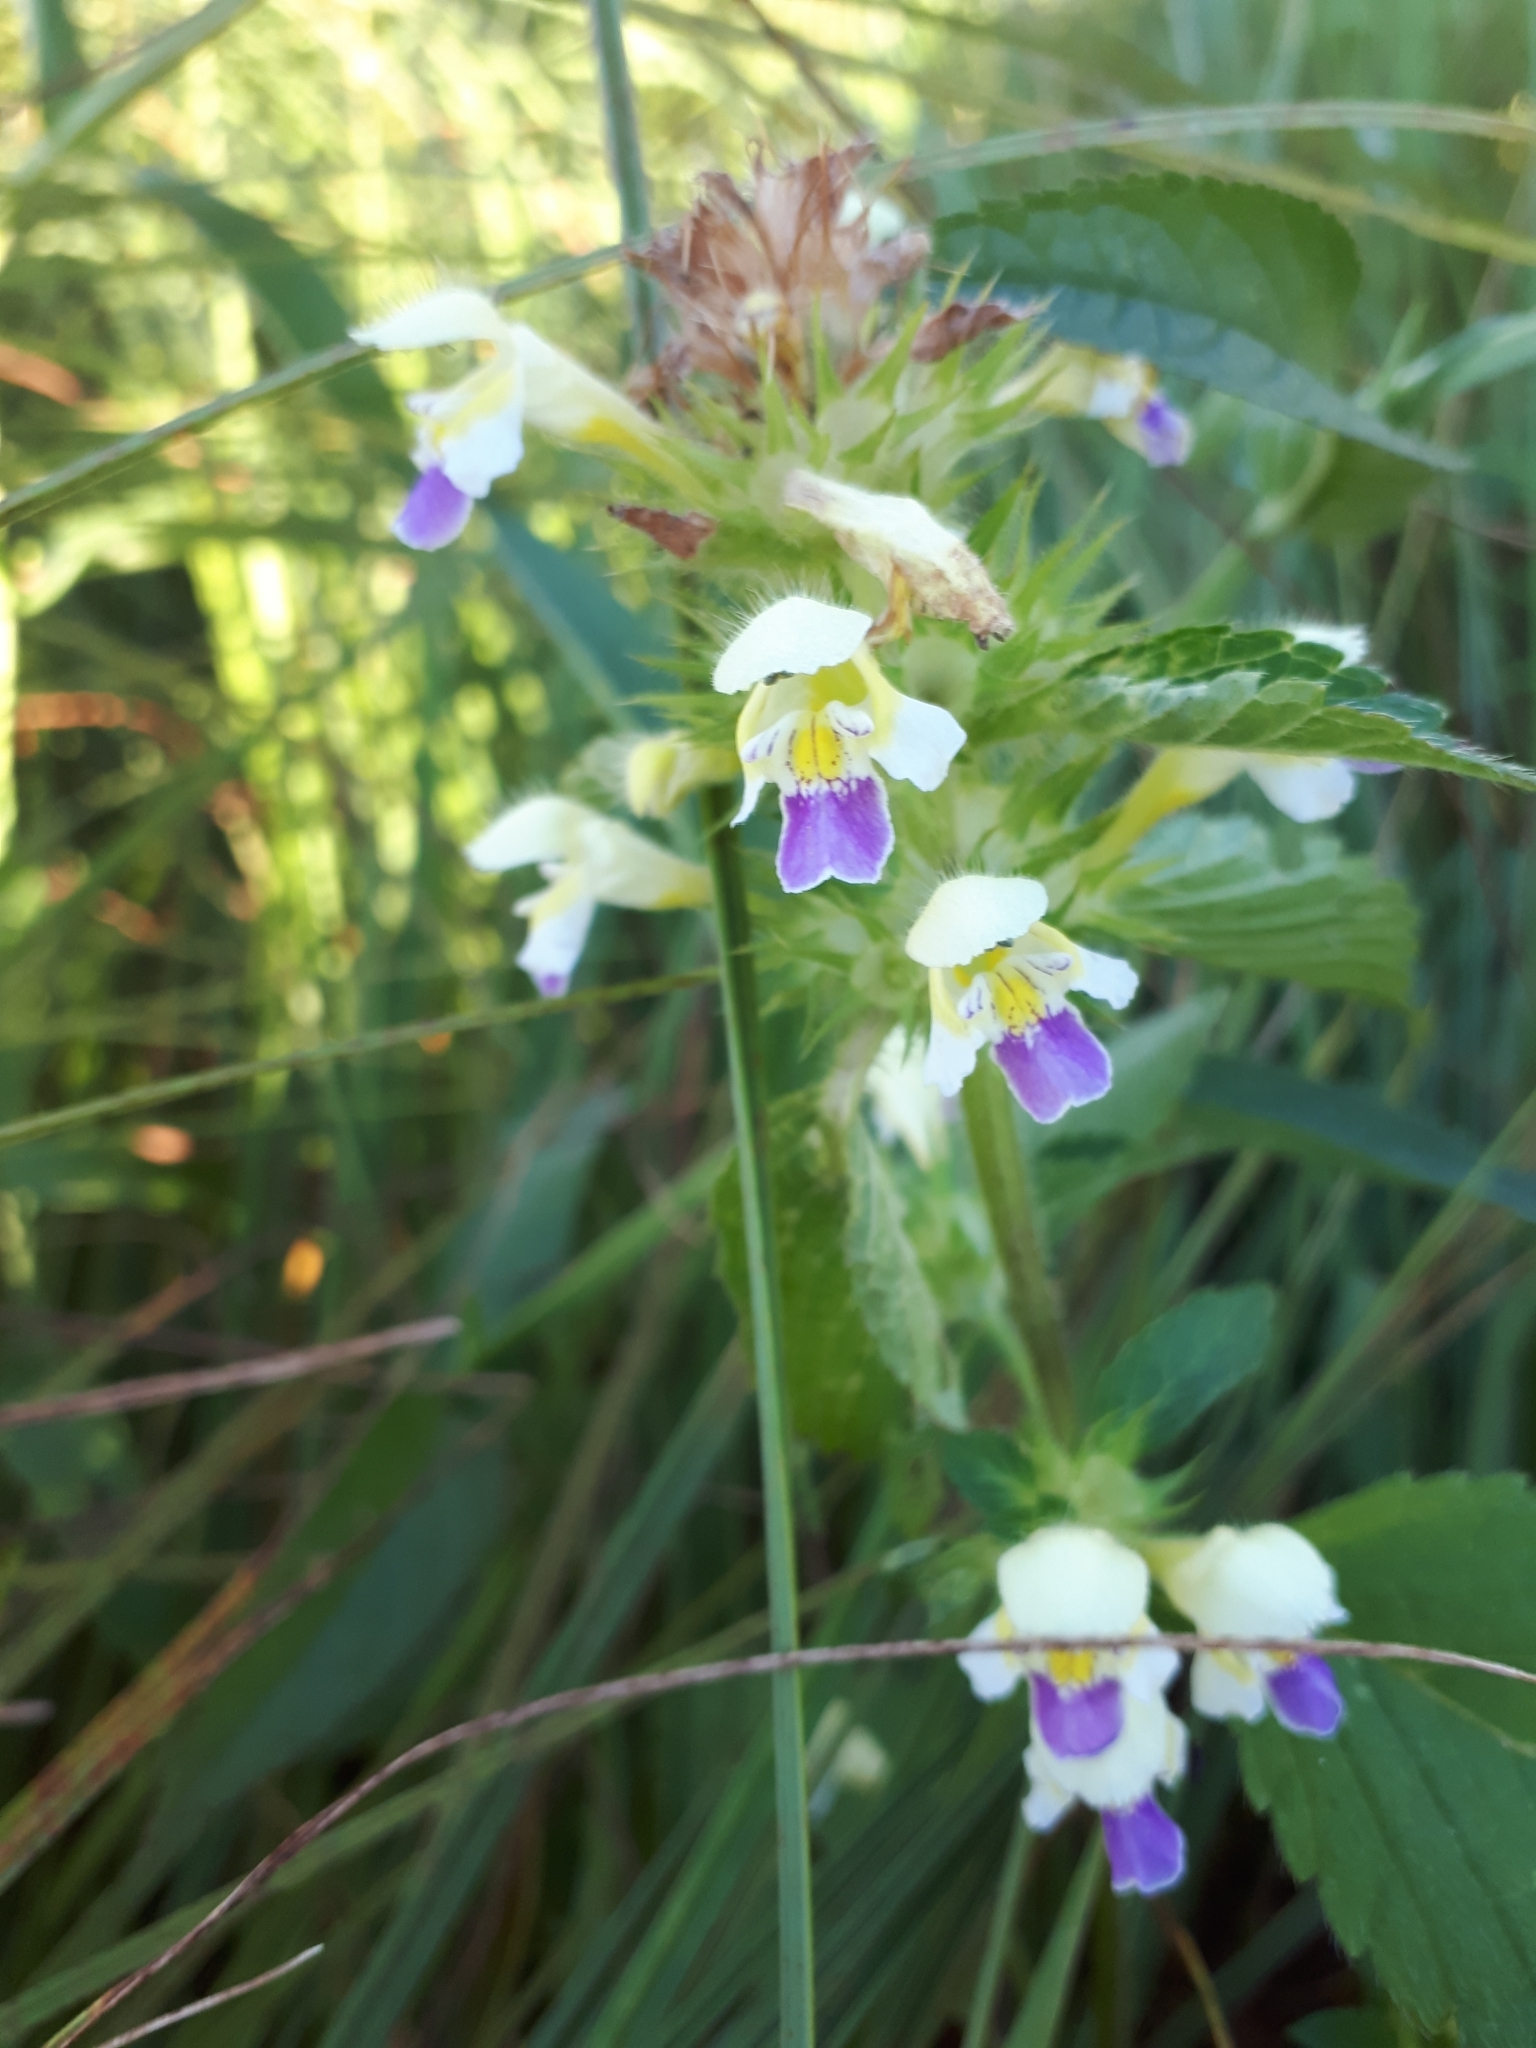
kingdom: Plantae
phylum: Tracheophyta
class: Magnoliopsida
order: Lamiales
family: Lamiaceae
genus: Galeopsis
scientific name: Galeopsis speciosa
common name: Large-flowered hemp-nettle
